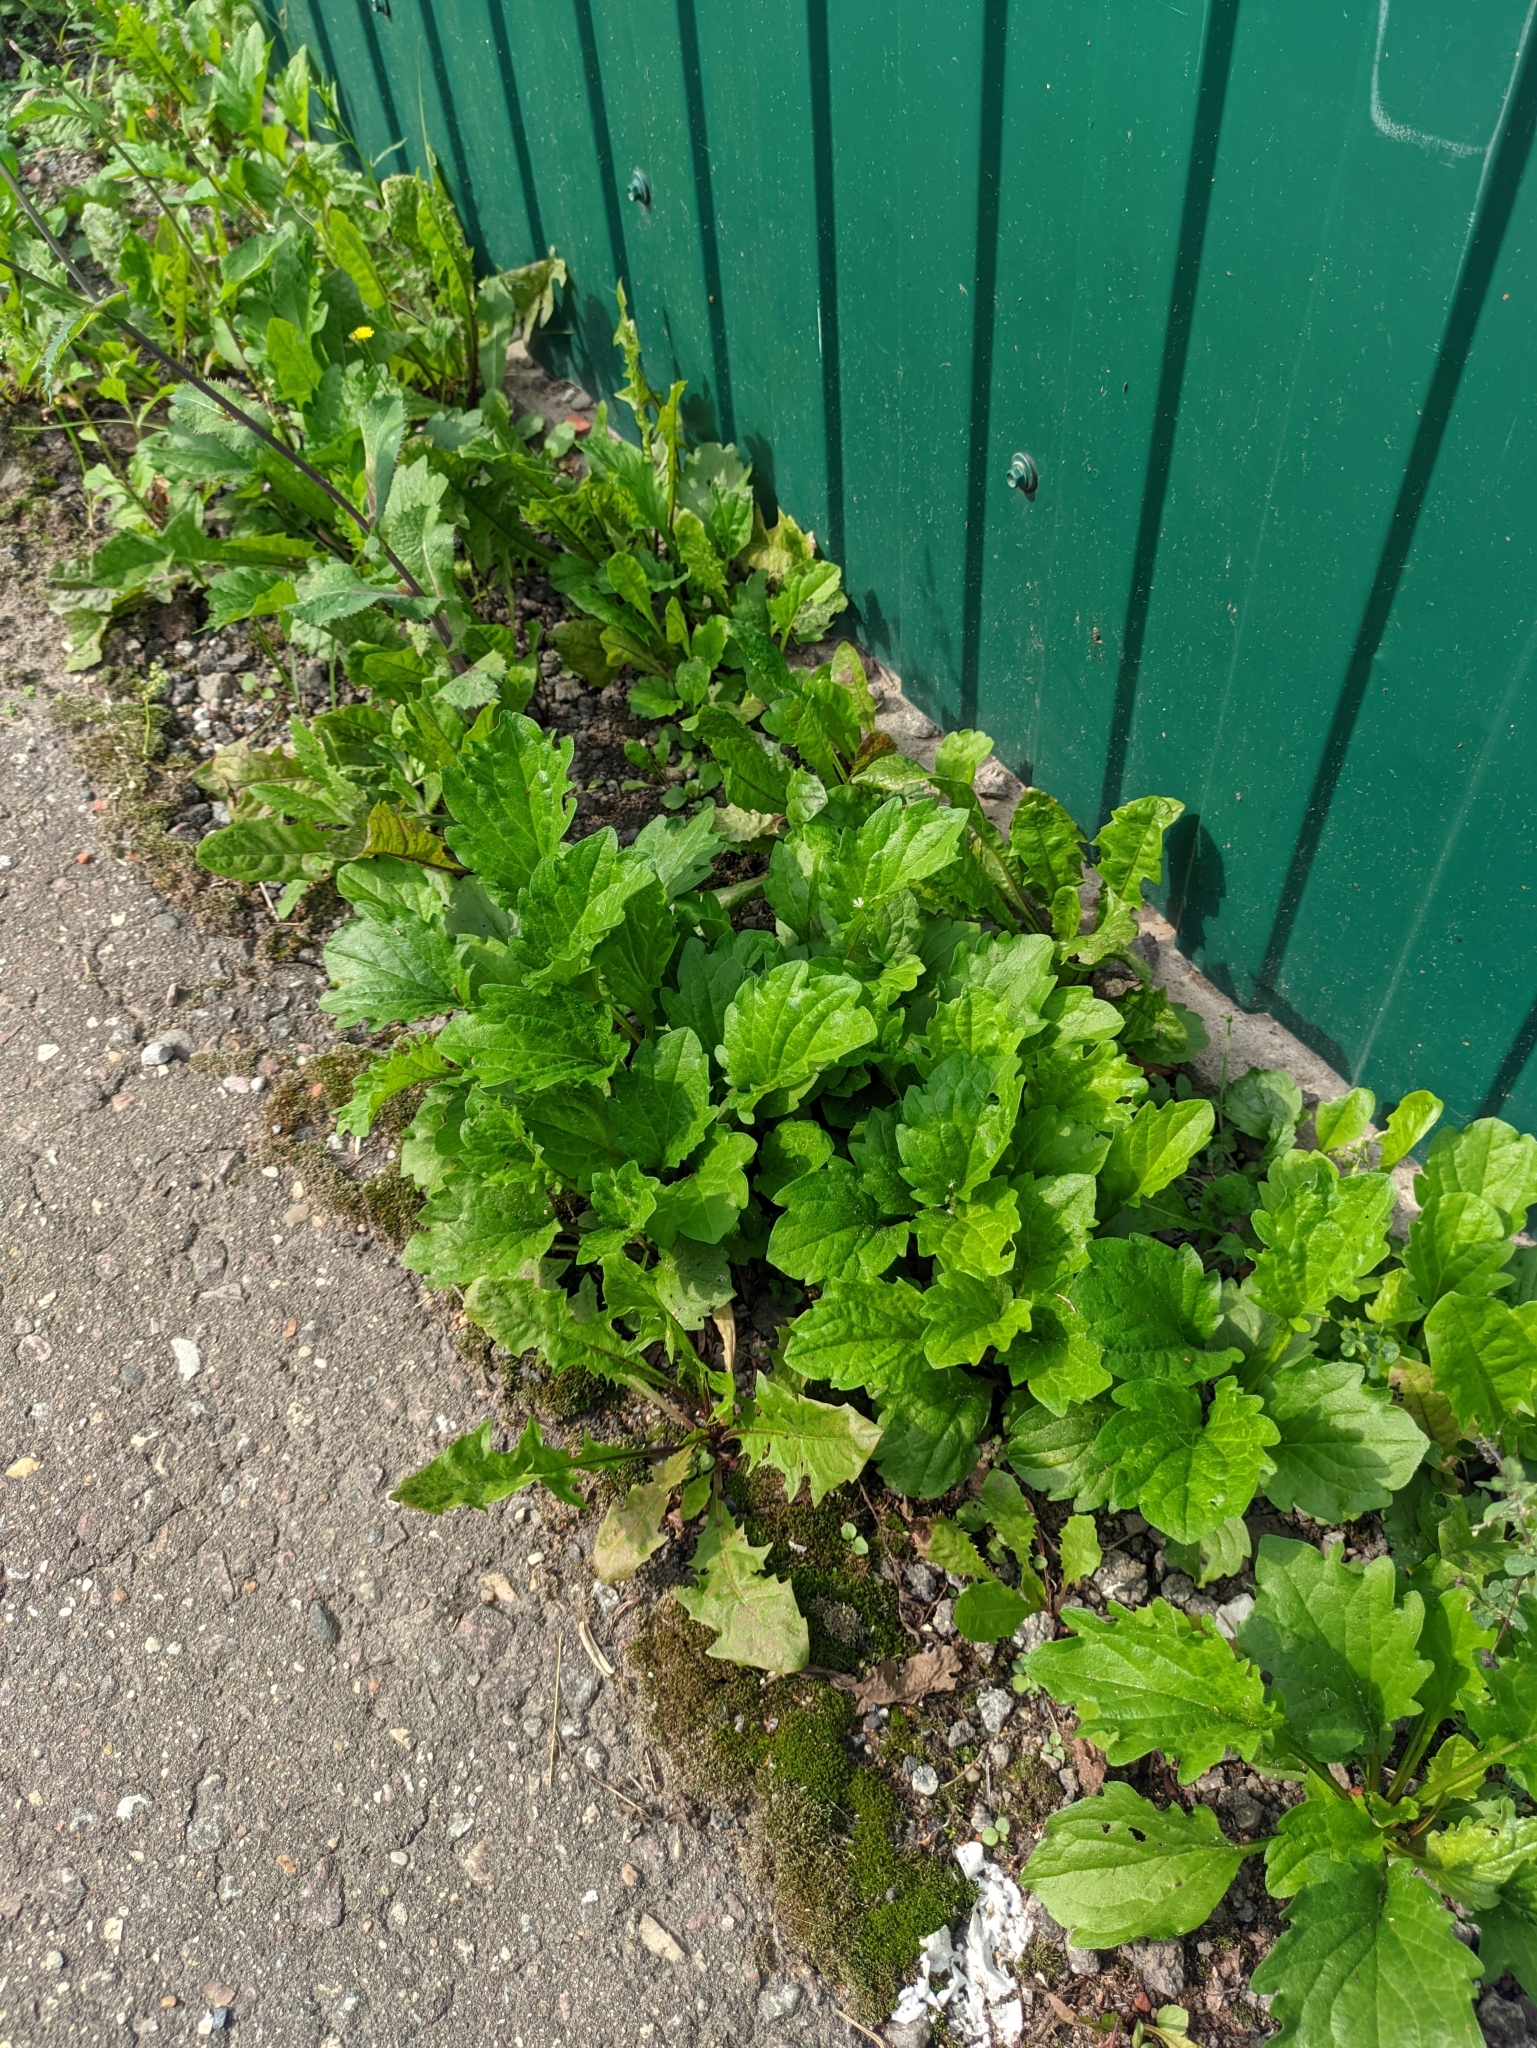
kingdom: Plantae
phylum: Tracheophyta
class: Magnoliopsida
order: Asterales
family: Asteraceae
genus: Erigeron
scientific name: Erigeron annuus
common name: Tall fleabane
